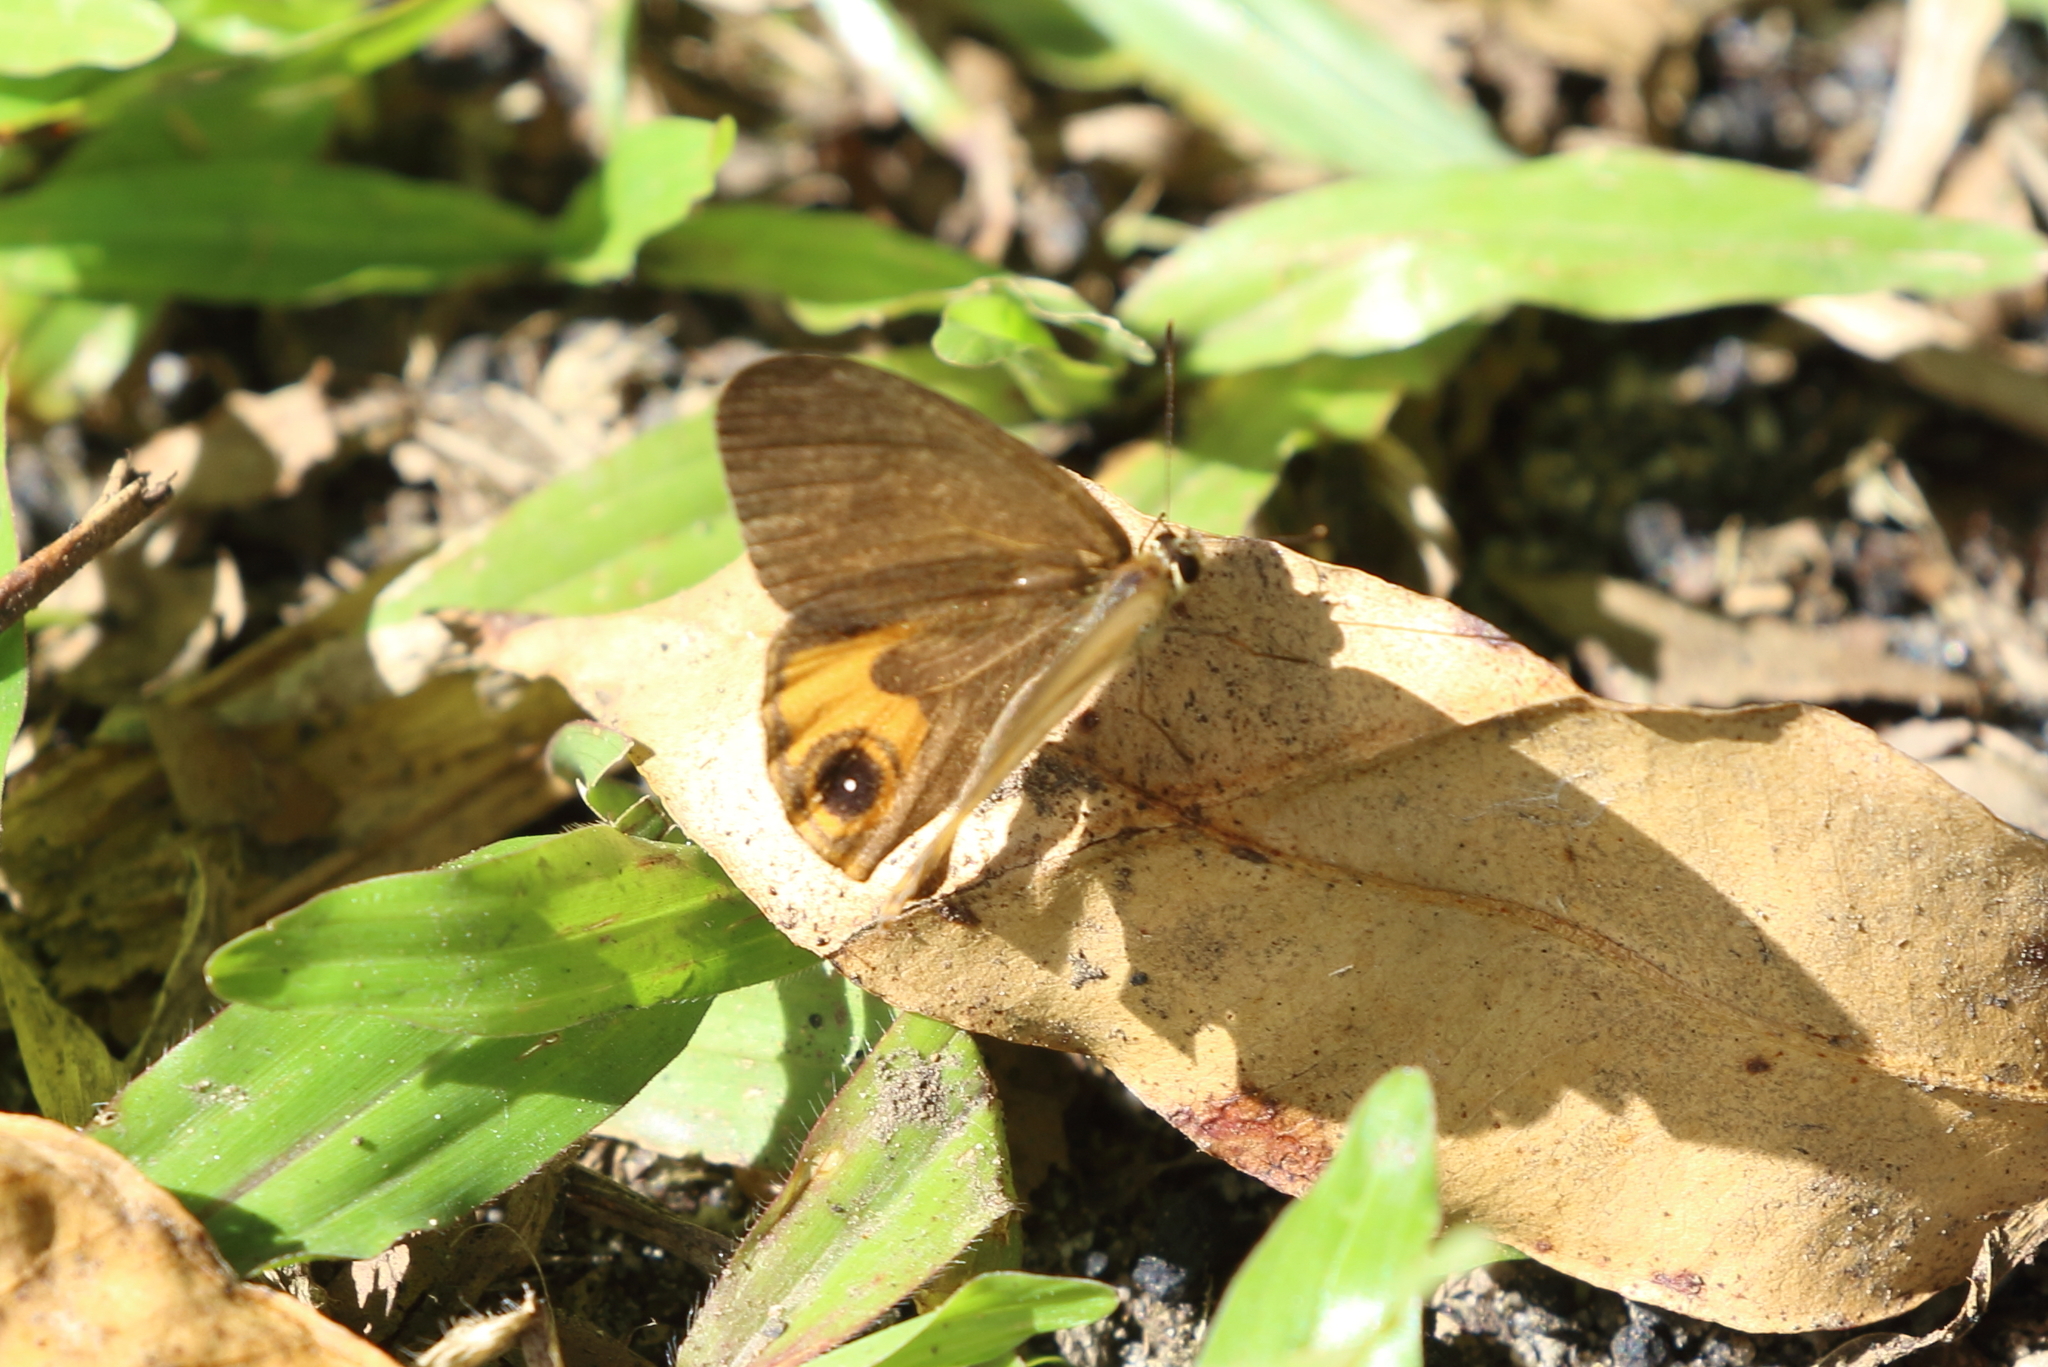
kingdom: Animalia
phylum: Arthropoda
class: Insecta
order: Lepidoptera
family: Nymphalidae
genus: Hypocysta
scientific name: Hypocysta metirius
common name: Brown ringlet
